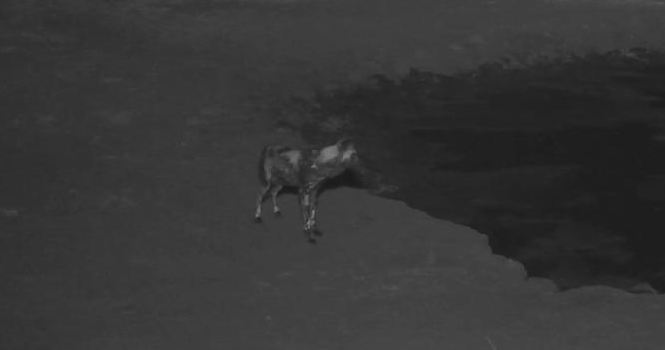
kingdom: Animalia
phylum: Chordata
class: Mammalia
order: Carnivora
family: Canidae
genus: Lycaon
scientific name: Lycaon pictus
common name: African wild dog
